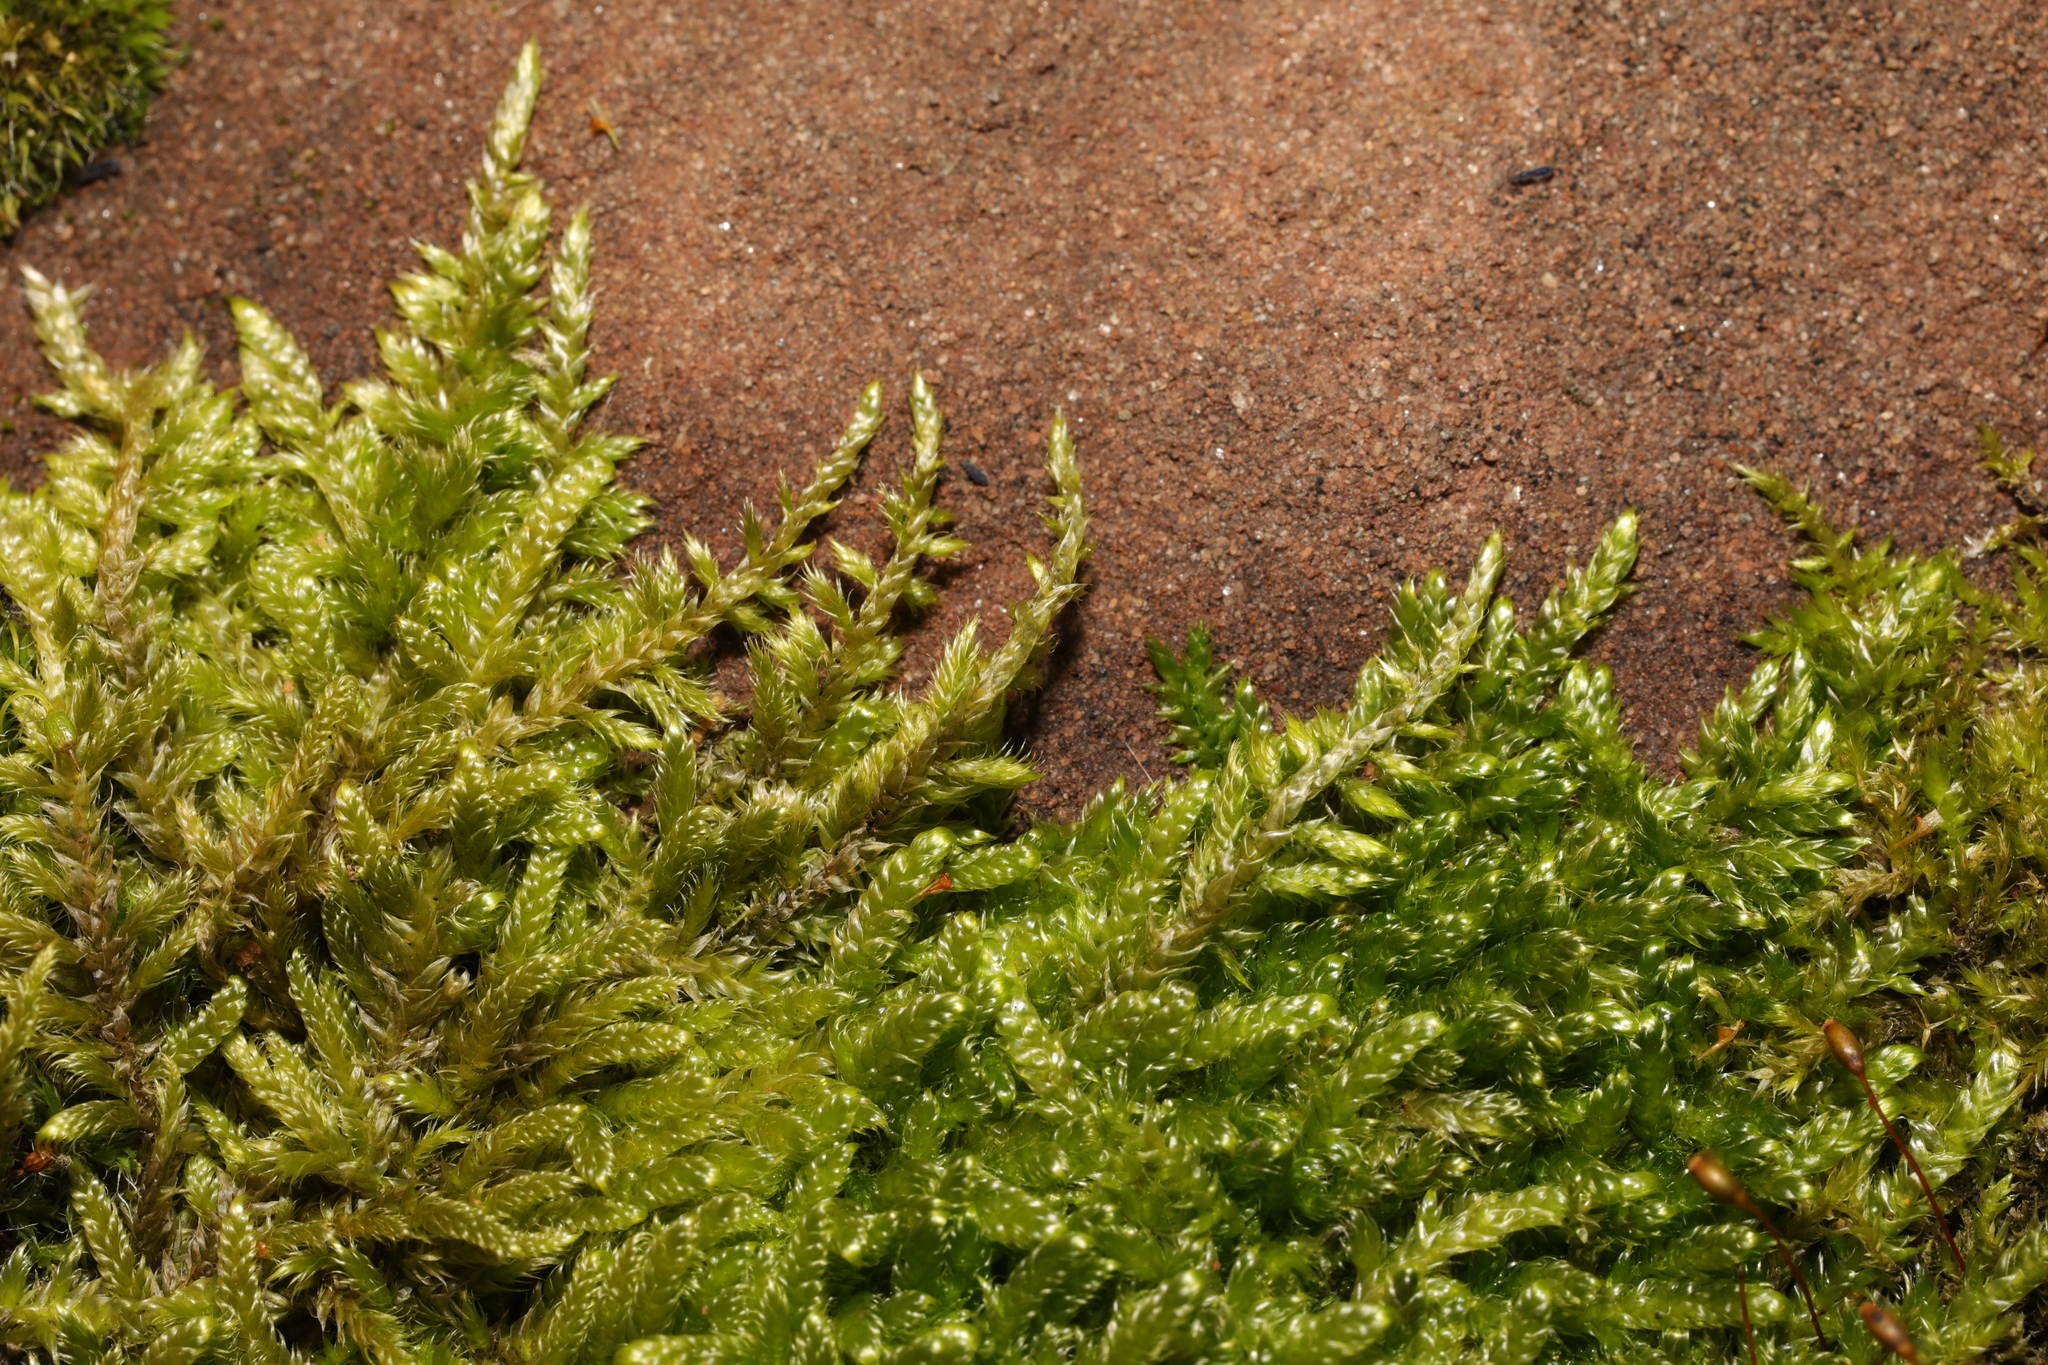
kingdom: Plantae
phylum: Bryophyta
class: Bryopsida
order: Hypnales
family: Hypnaceae
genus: Hypnum
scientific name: Hypnum cupressiforme
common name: Cypress-leaved plait-moss
